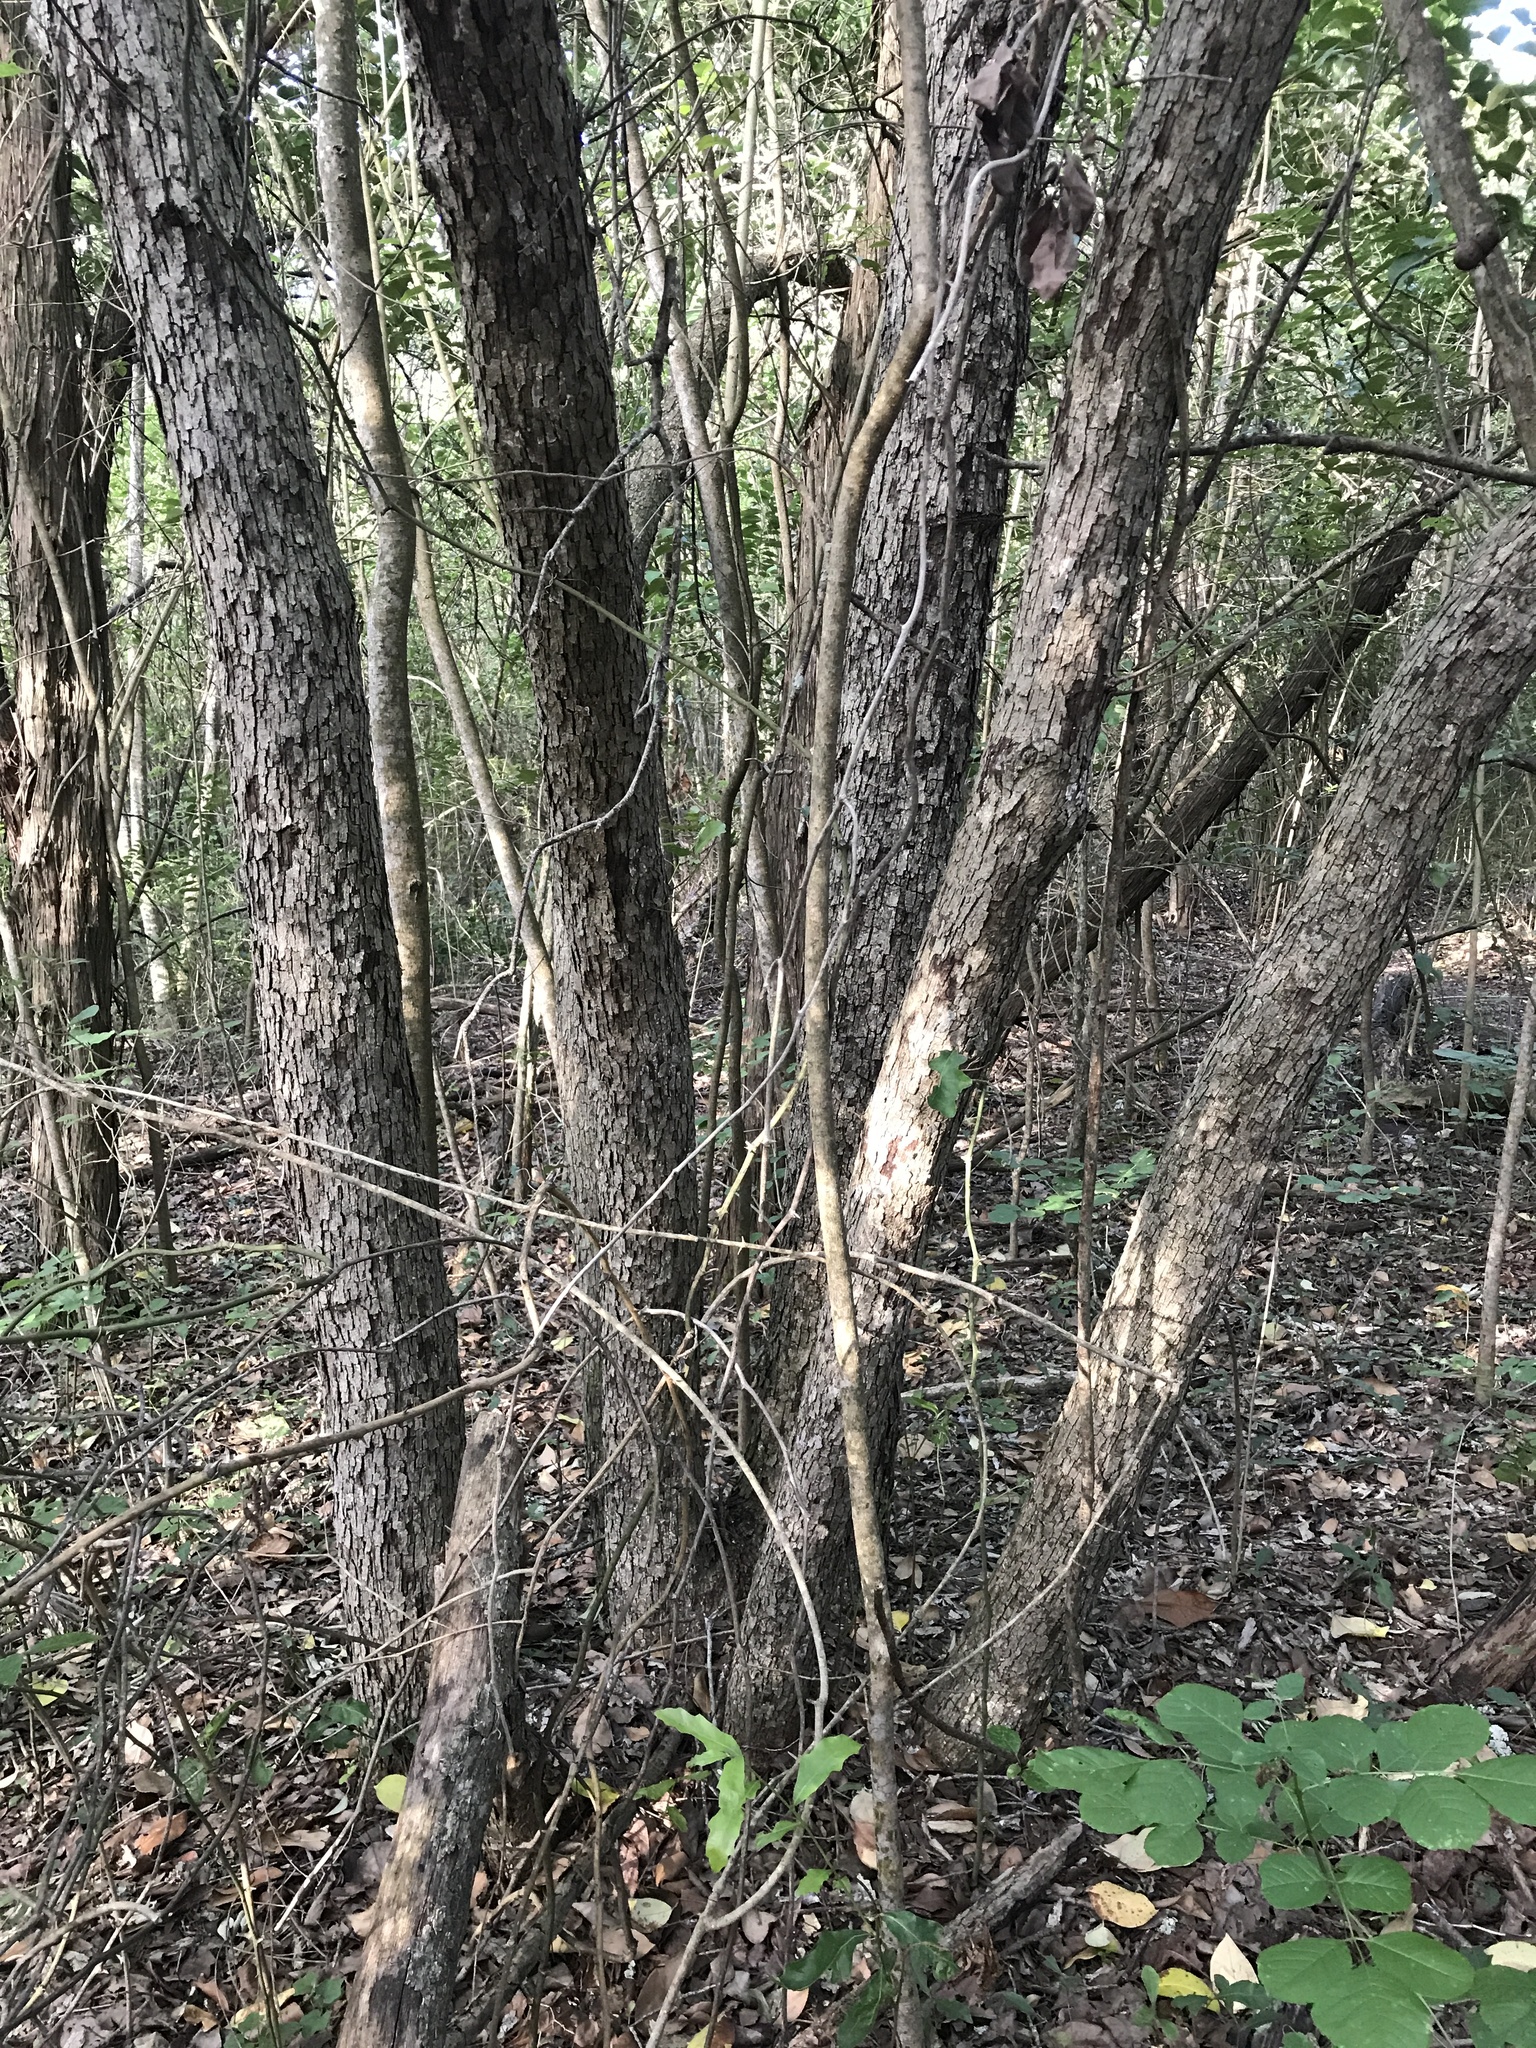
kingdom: Plantae
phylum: Tracheophyta
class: Magnoliopsida
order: Fagales
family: Fagaceae
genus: Quercus
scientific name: Quercus sinuata
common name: Durand oak
